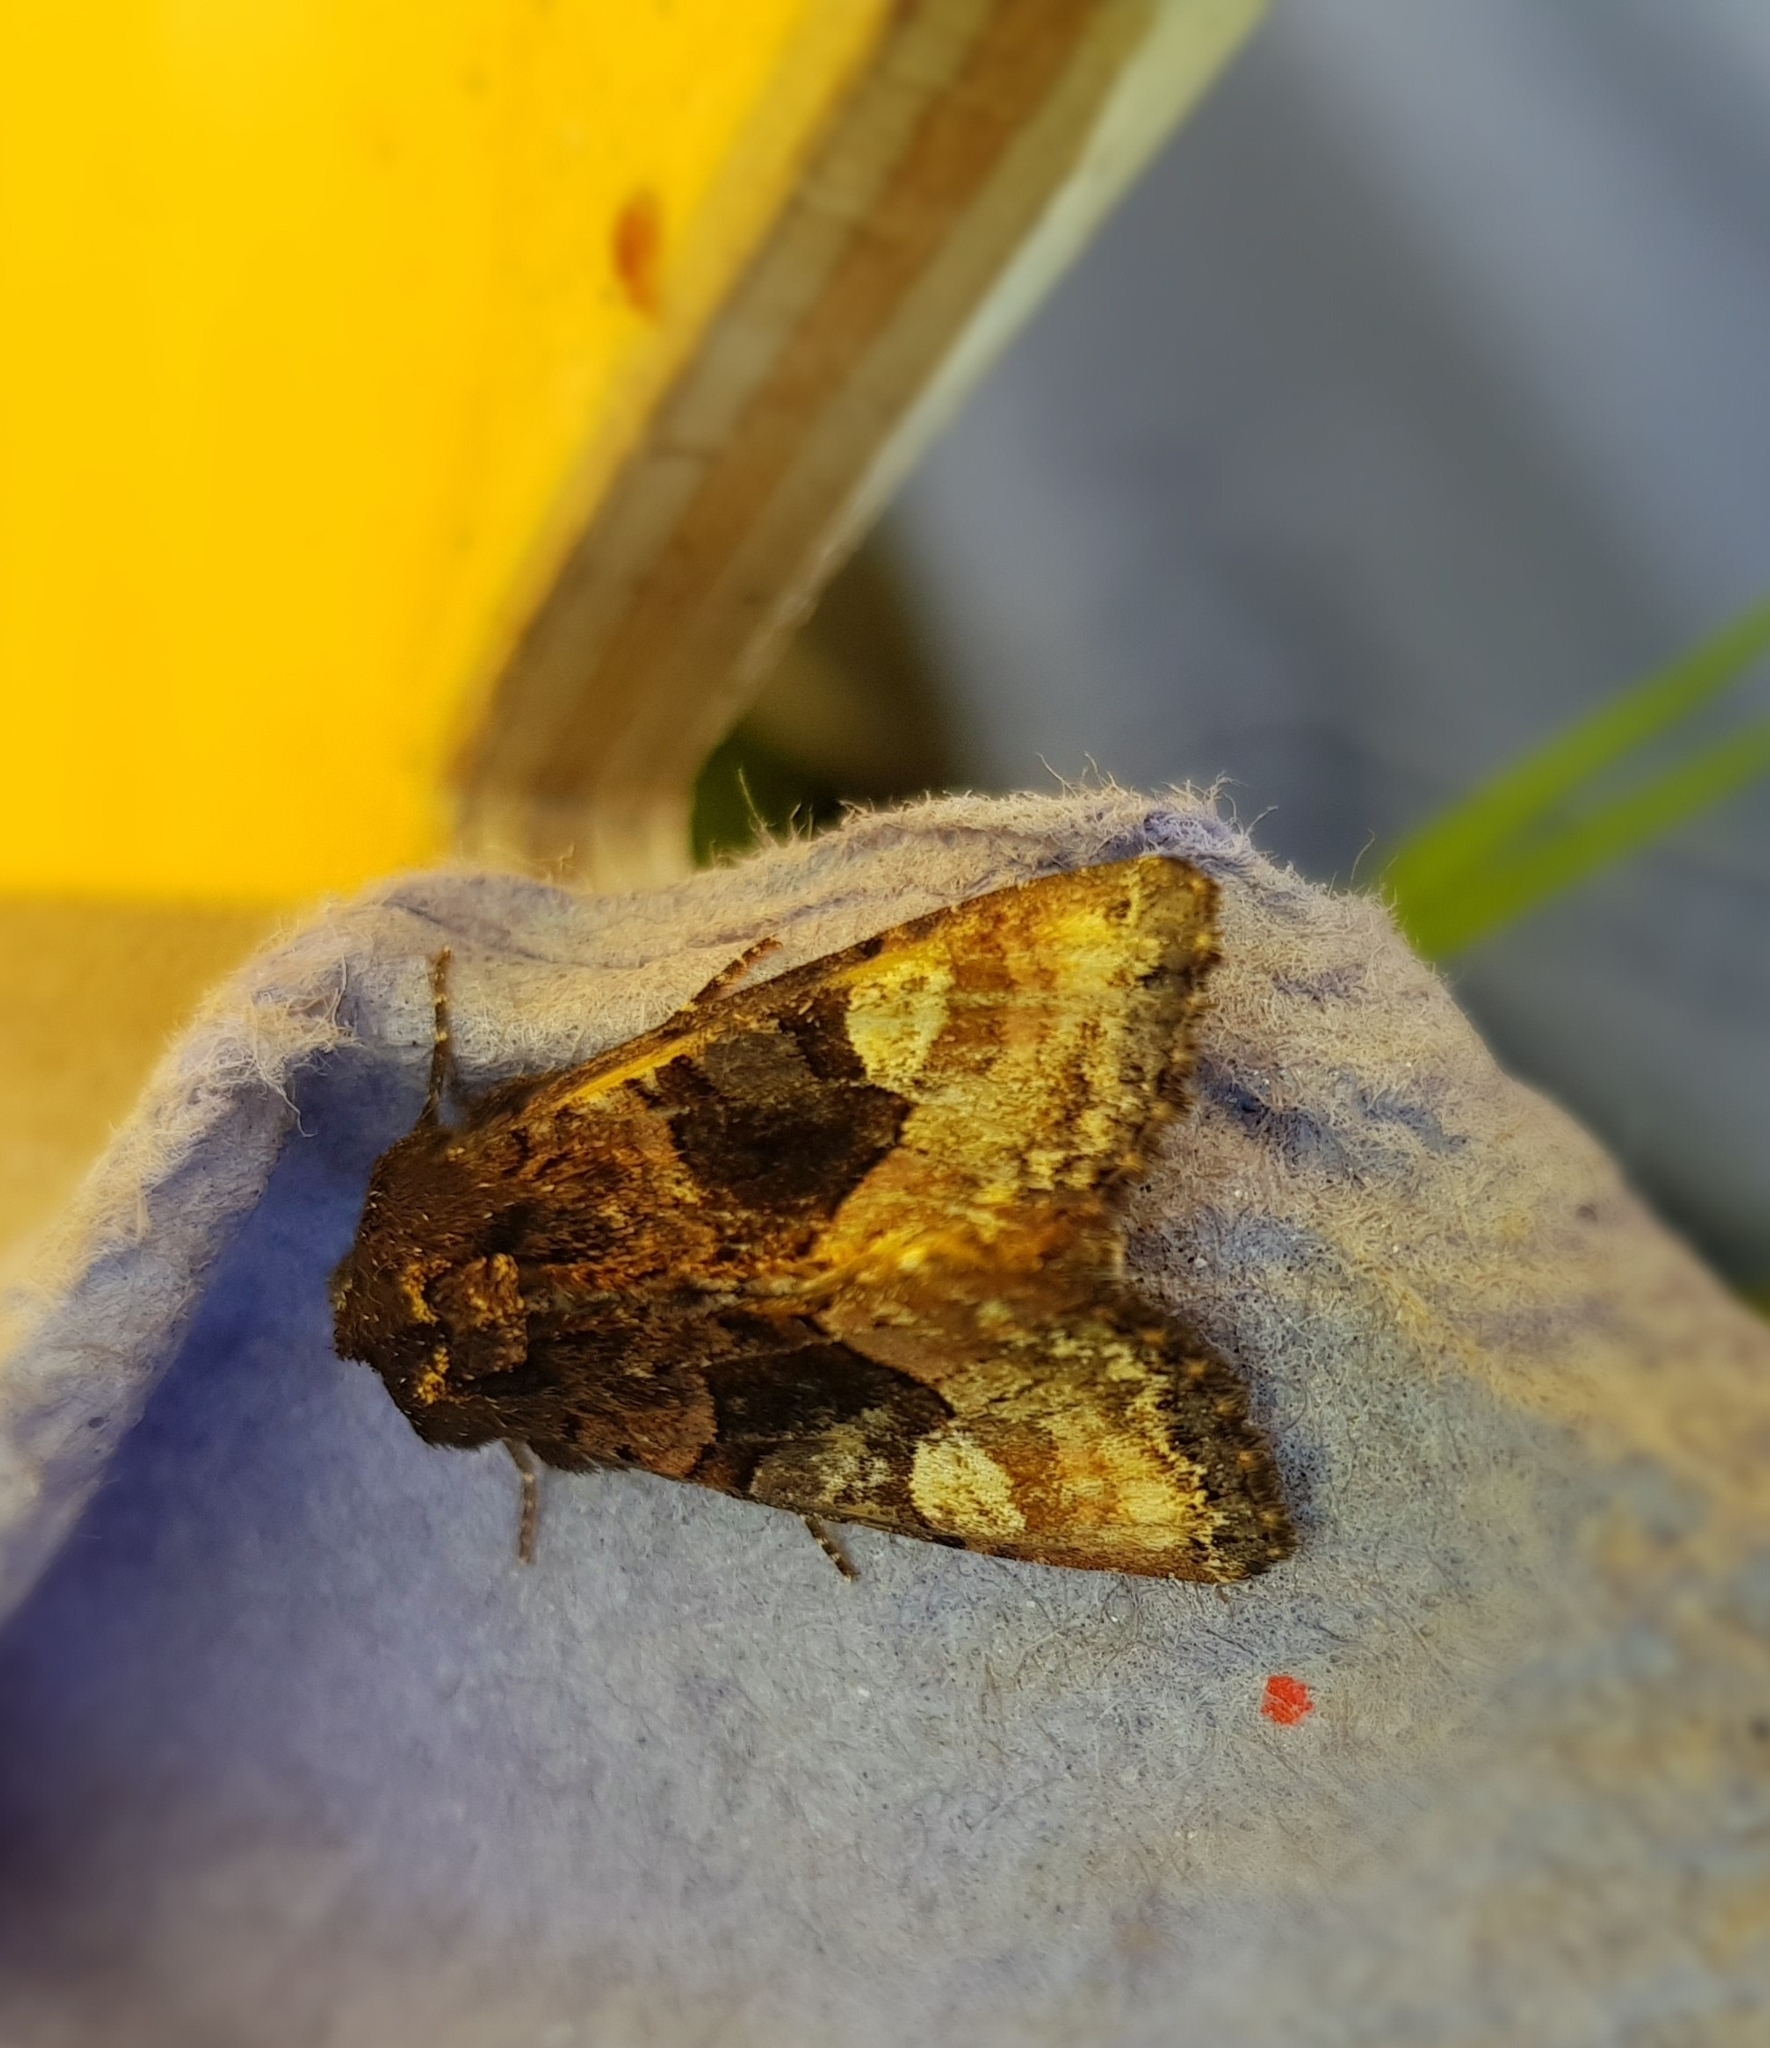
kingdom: Animalia
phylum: Arthropoda
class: Insecta
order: Lepidoptera
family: Noctuidae
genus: Euplexia
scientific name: Euplexia lucipara
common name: Small angle shades
